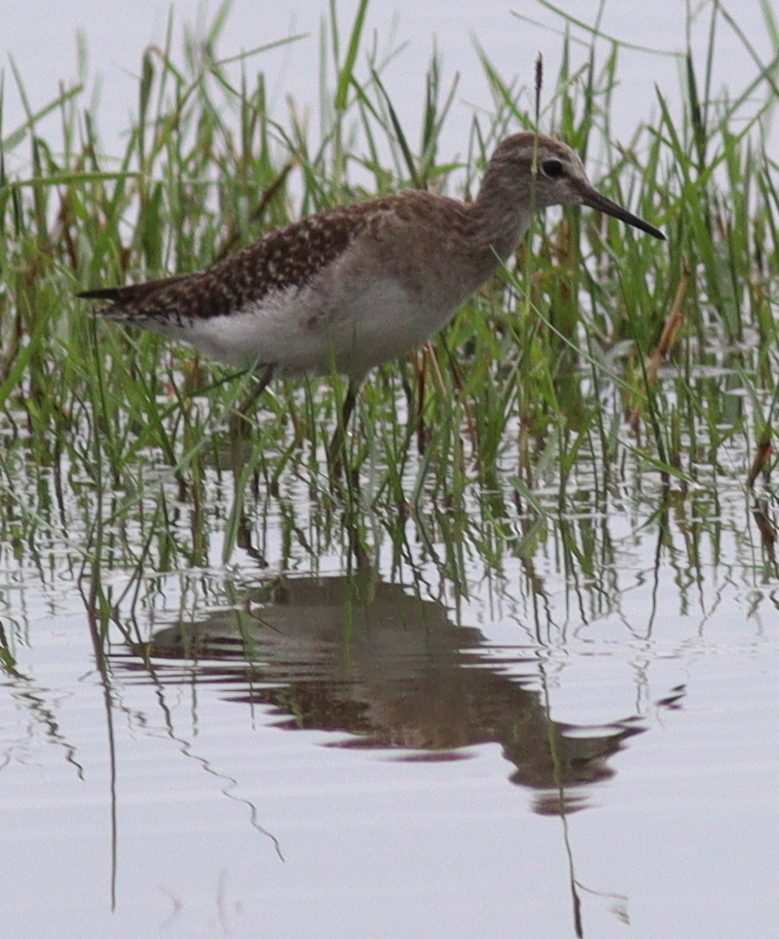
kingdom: Animalia
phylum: Chordata
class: Aves
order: Charadriiformes
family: Scolopacidae
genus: Tringa
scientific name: Tringa glareola
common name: Wood sandpiper
